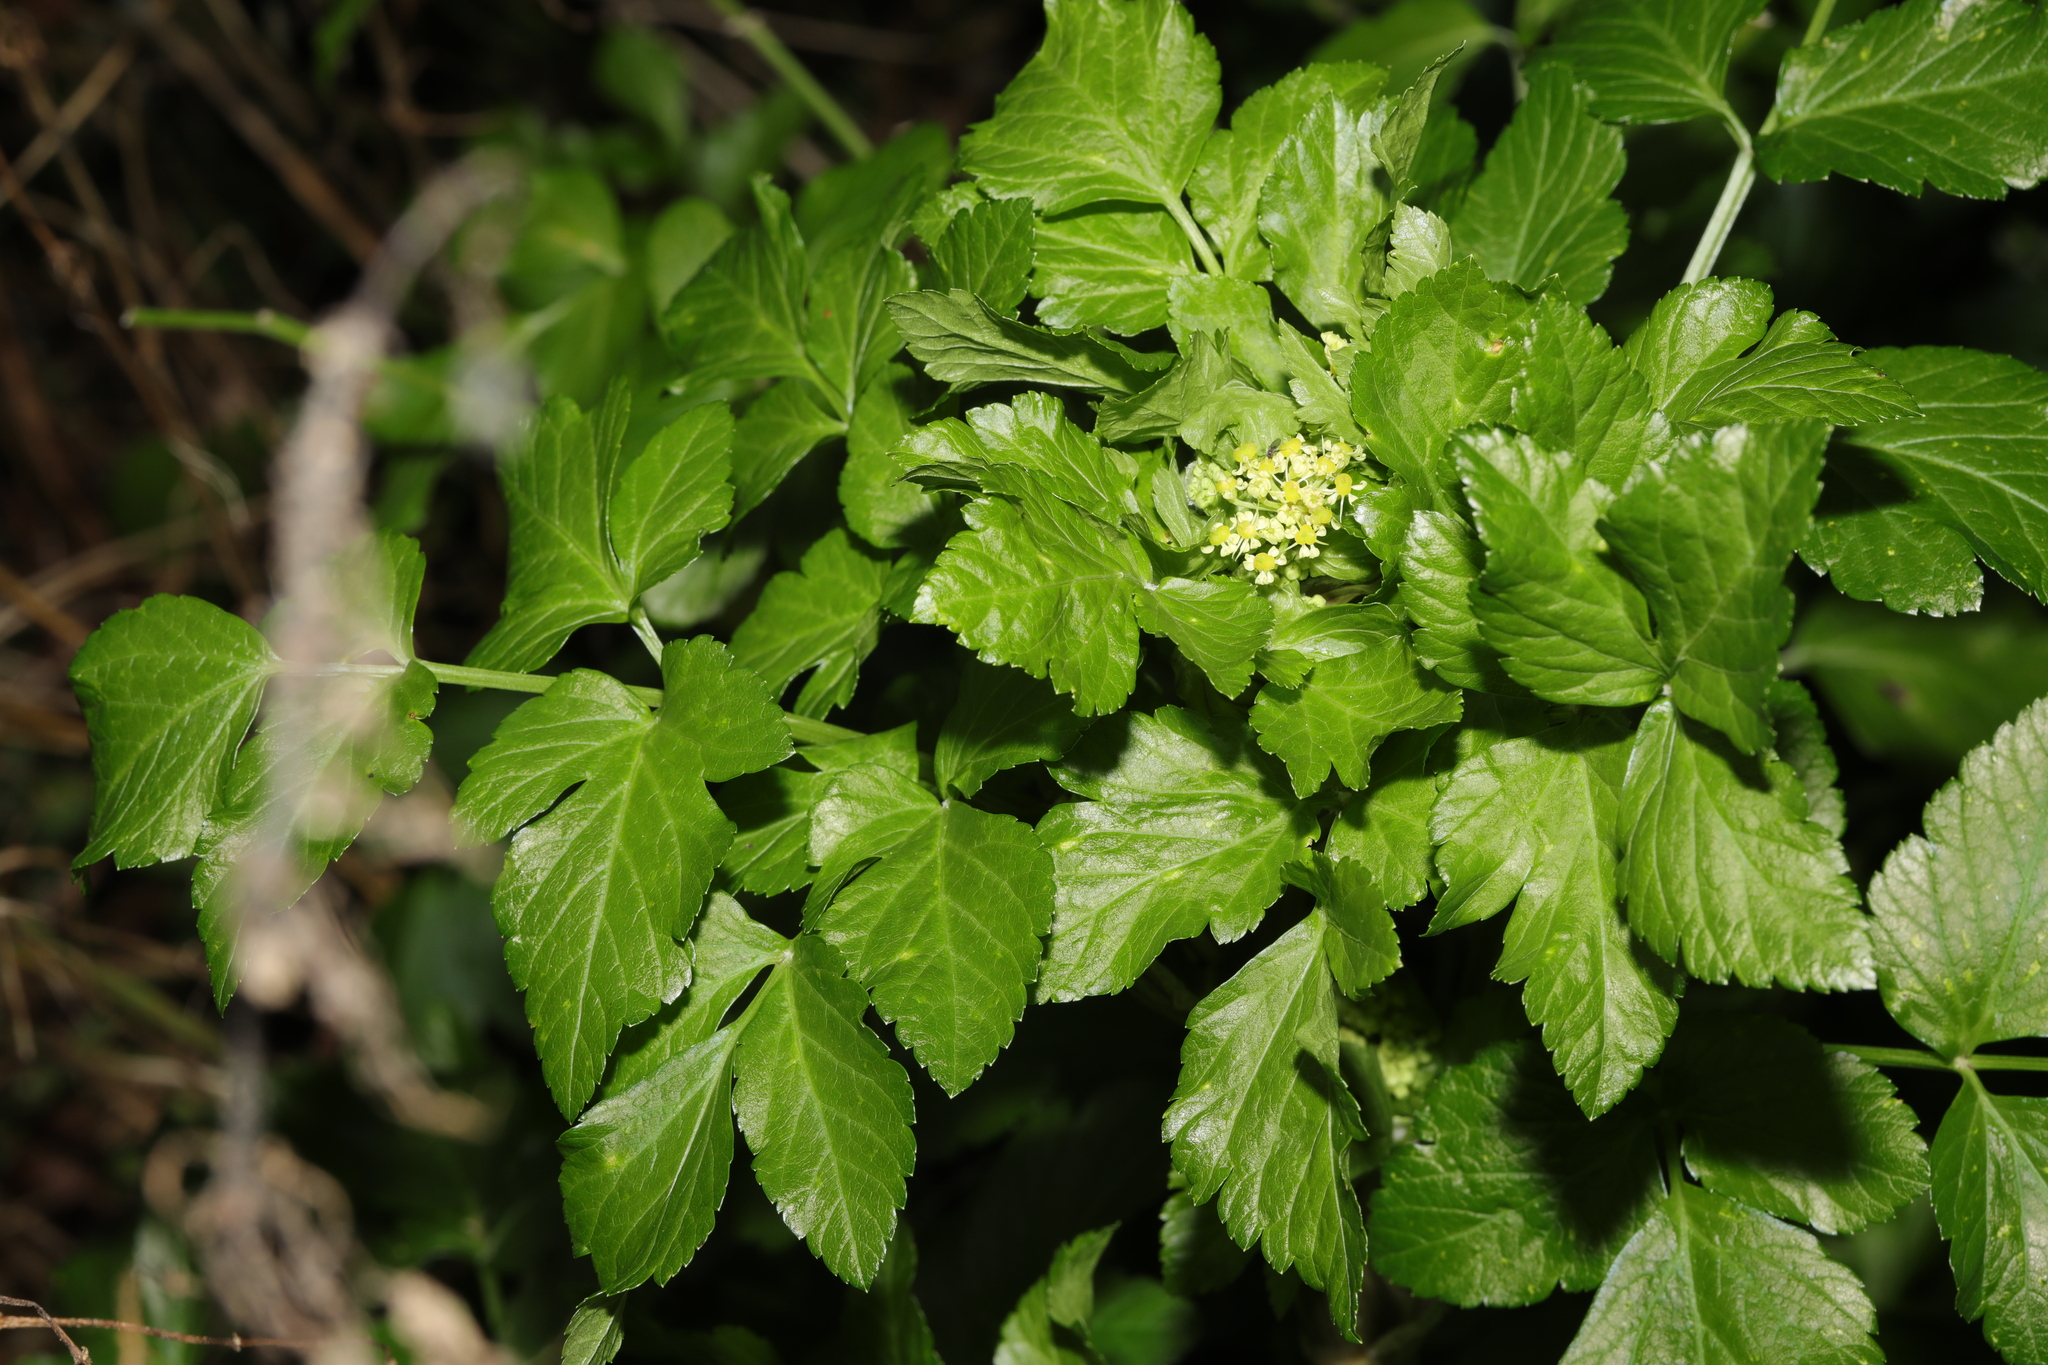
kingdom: Plantae
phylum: Tracheophyta
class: Magnoliopsida
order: Apiales
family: Apiaceae
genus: Smyrnium
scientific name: Smyrnium olusatrum
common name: Alexanders
